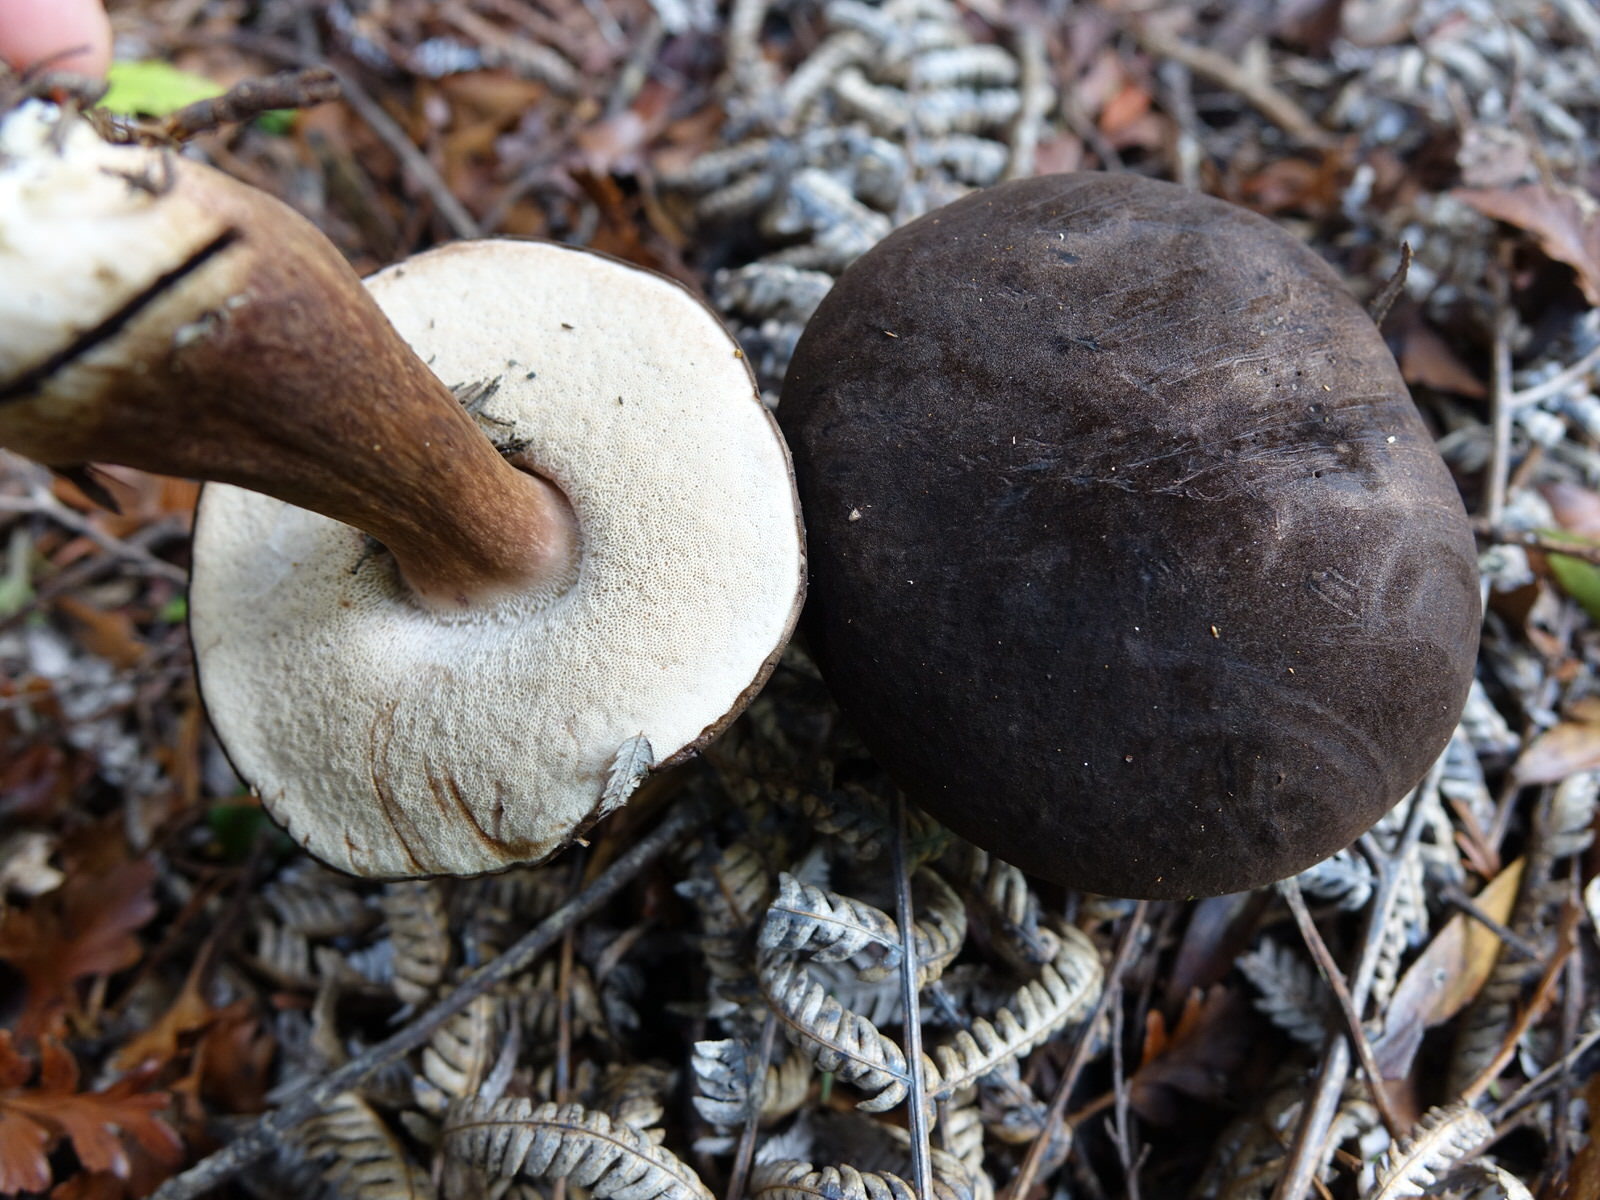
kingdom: Fungi
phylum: Basidiomycota
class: Agaricomycetes
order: Boletales
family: Boletaceae
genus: Porphyrellus
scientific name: Porphyrellus formosus
